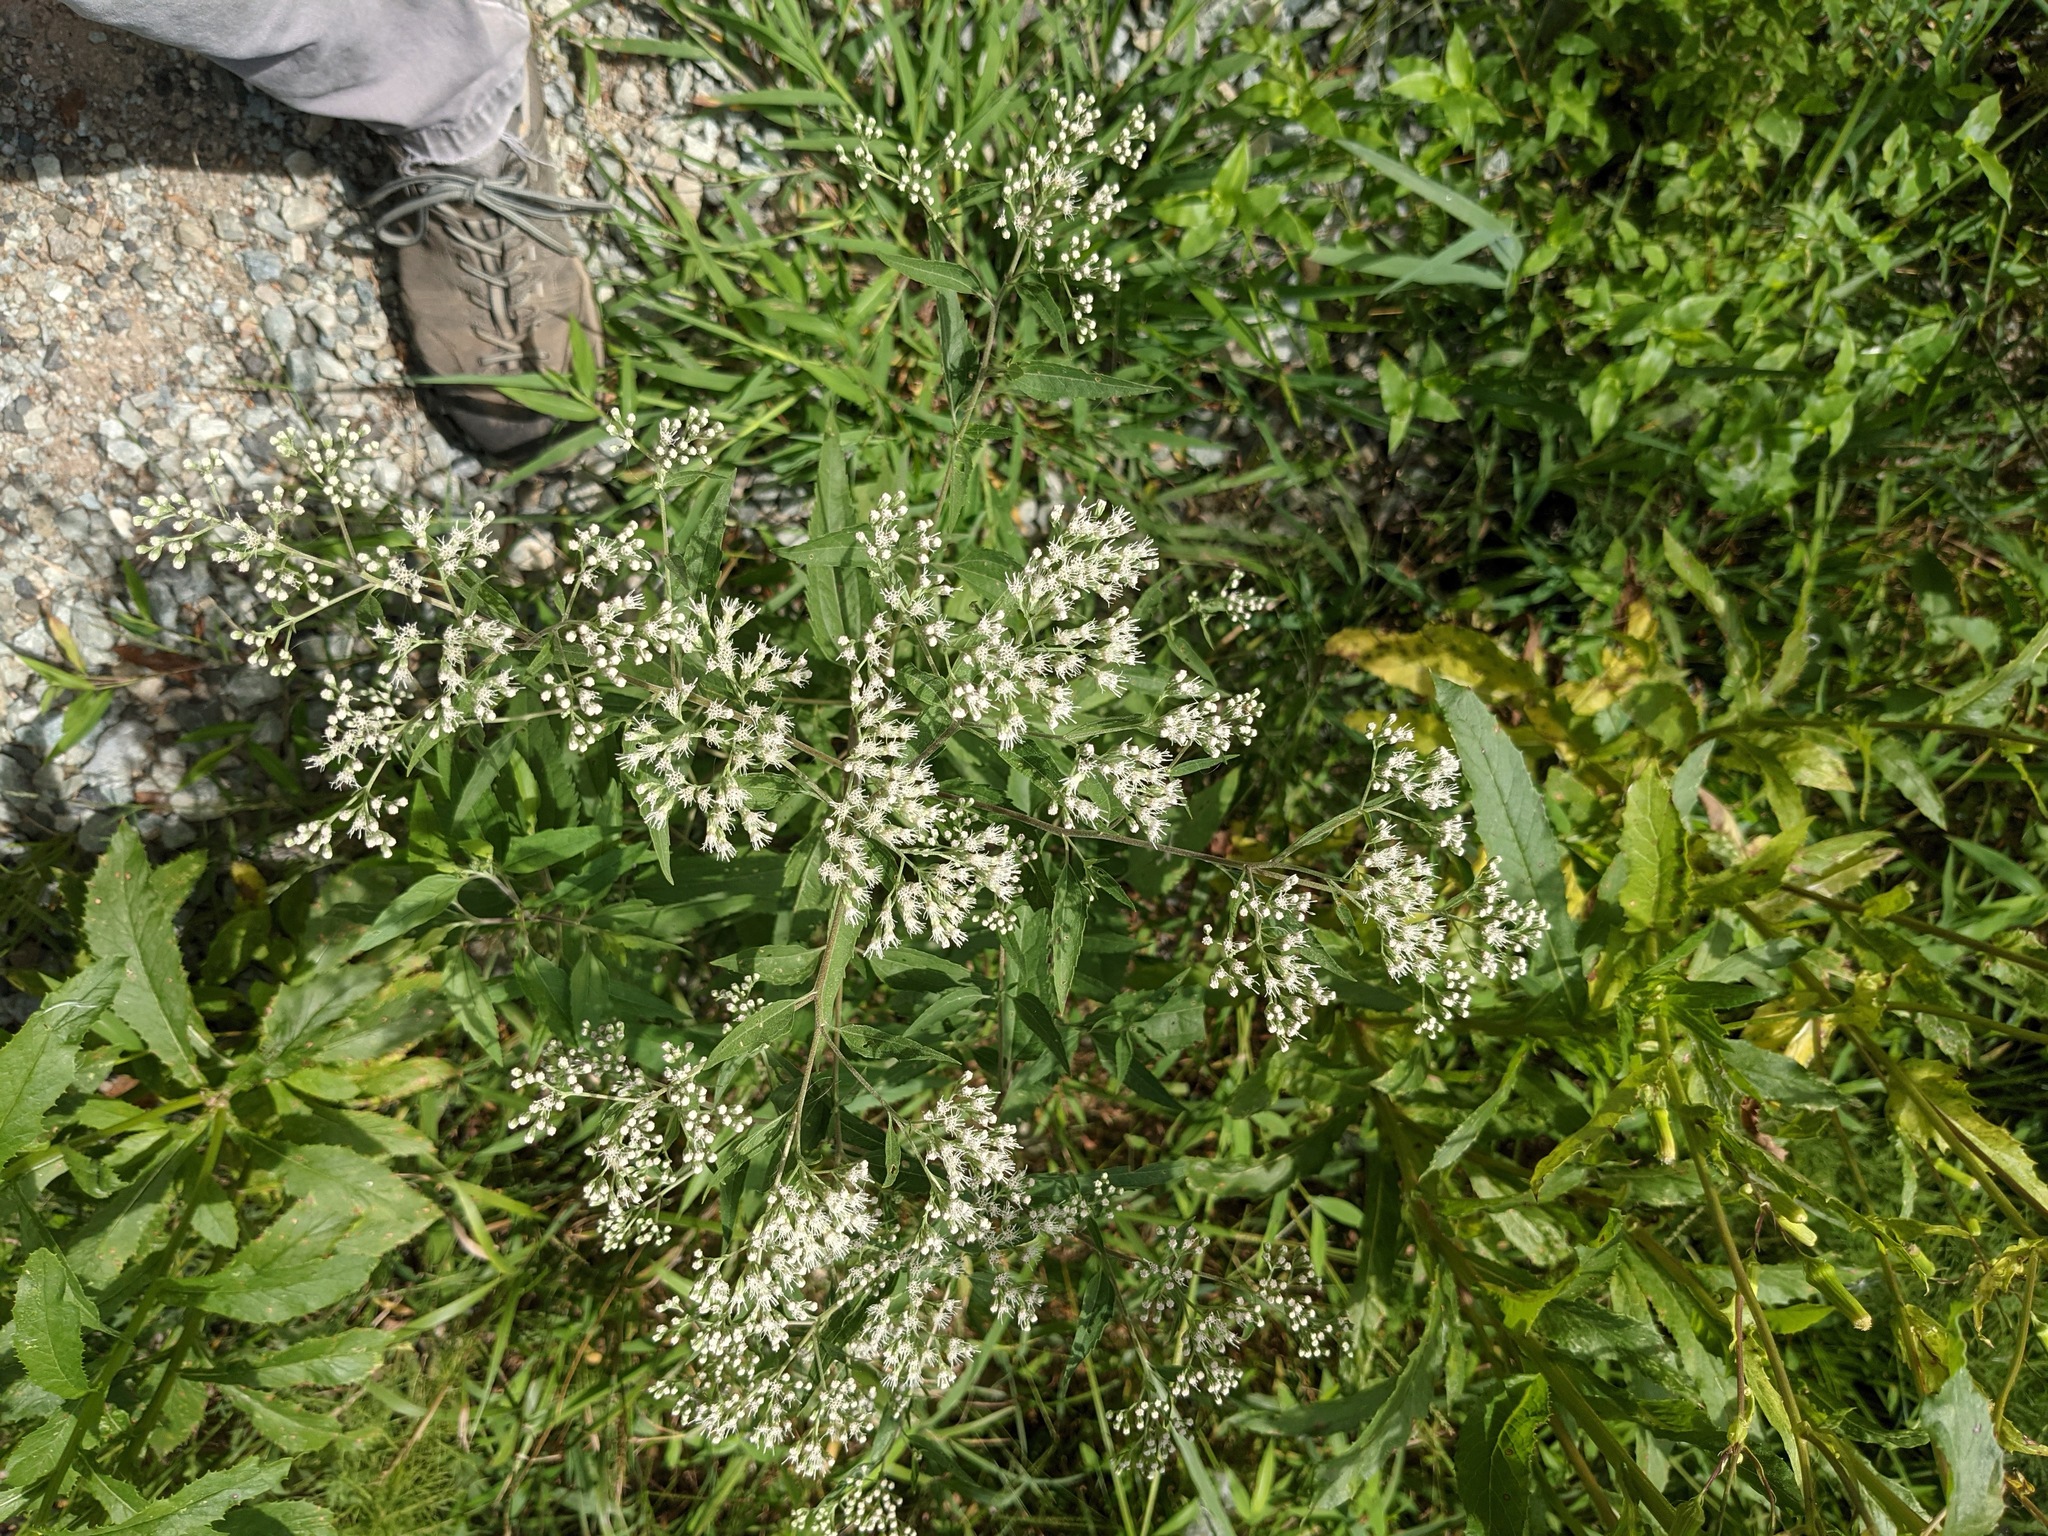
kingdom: Plantae
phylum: Tracheophyta
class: Magnoliopsida
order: Asterales
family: Asteraceae
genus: Eupatorium
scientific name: Eupatorium serotinum
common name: Late boneset
